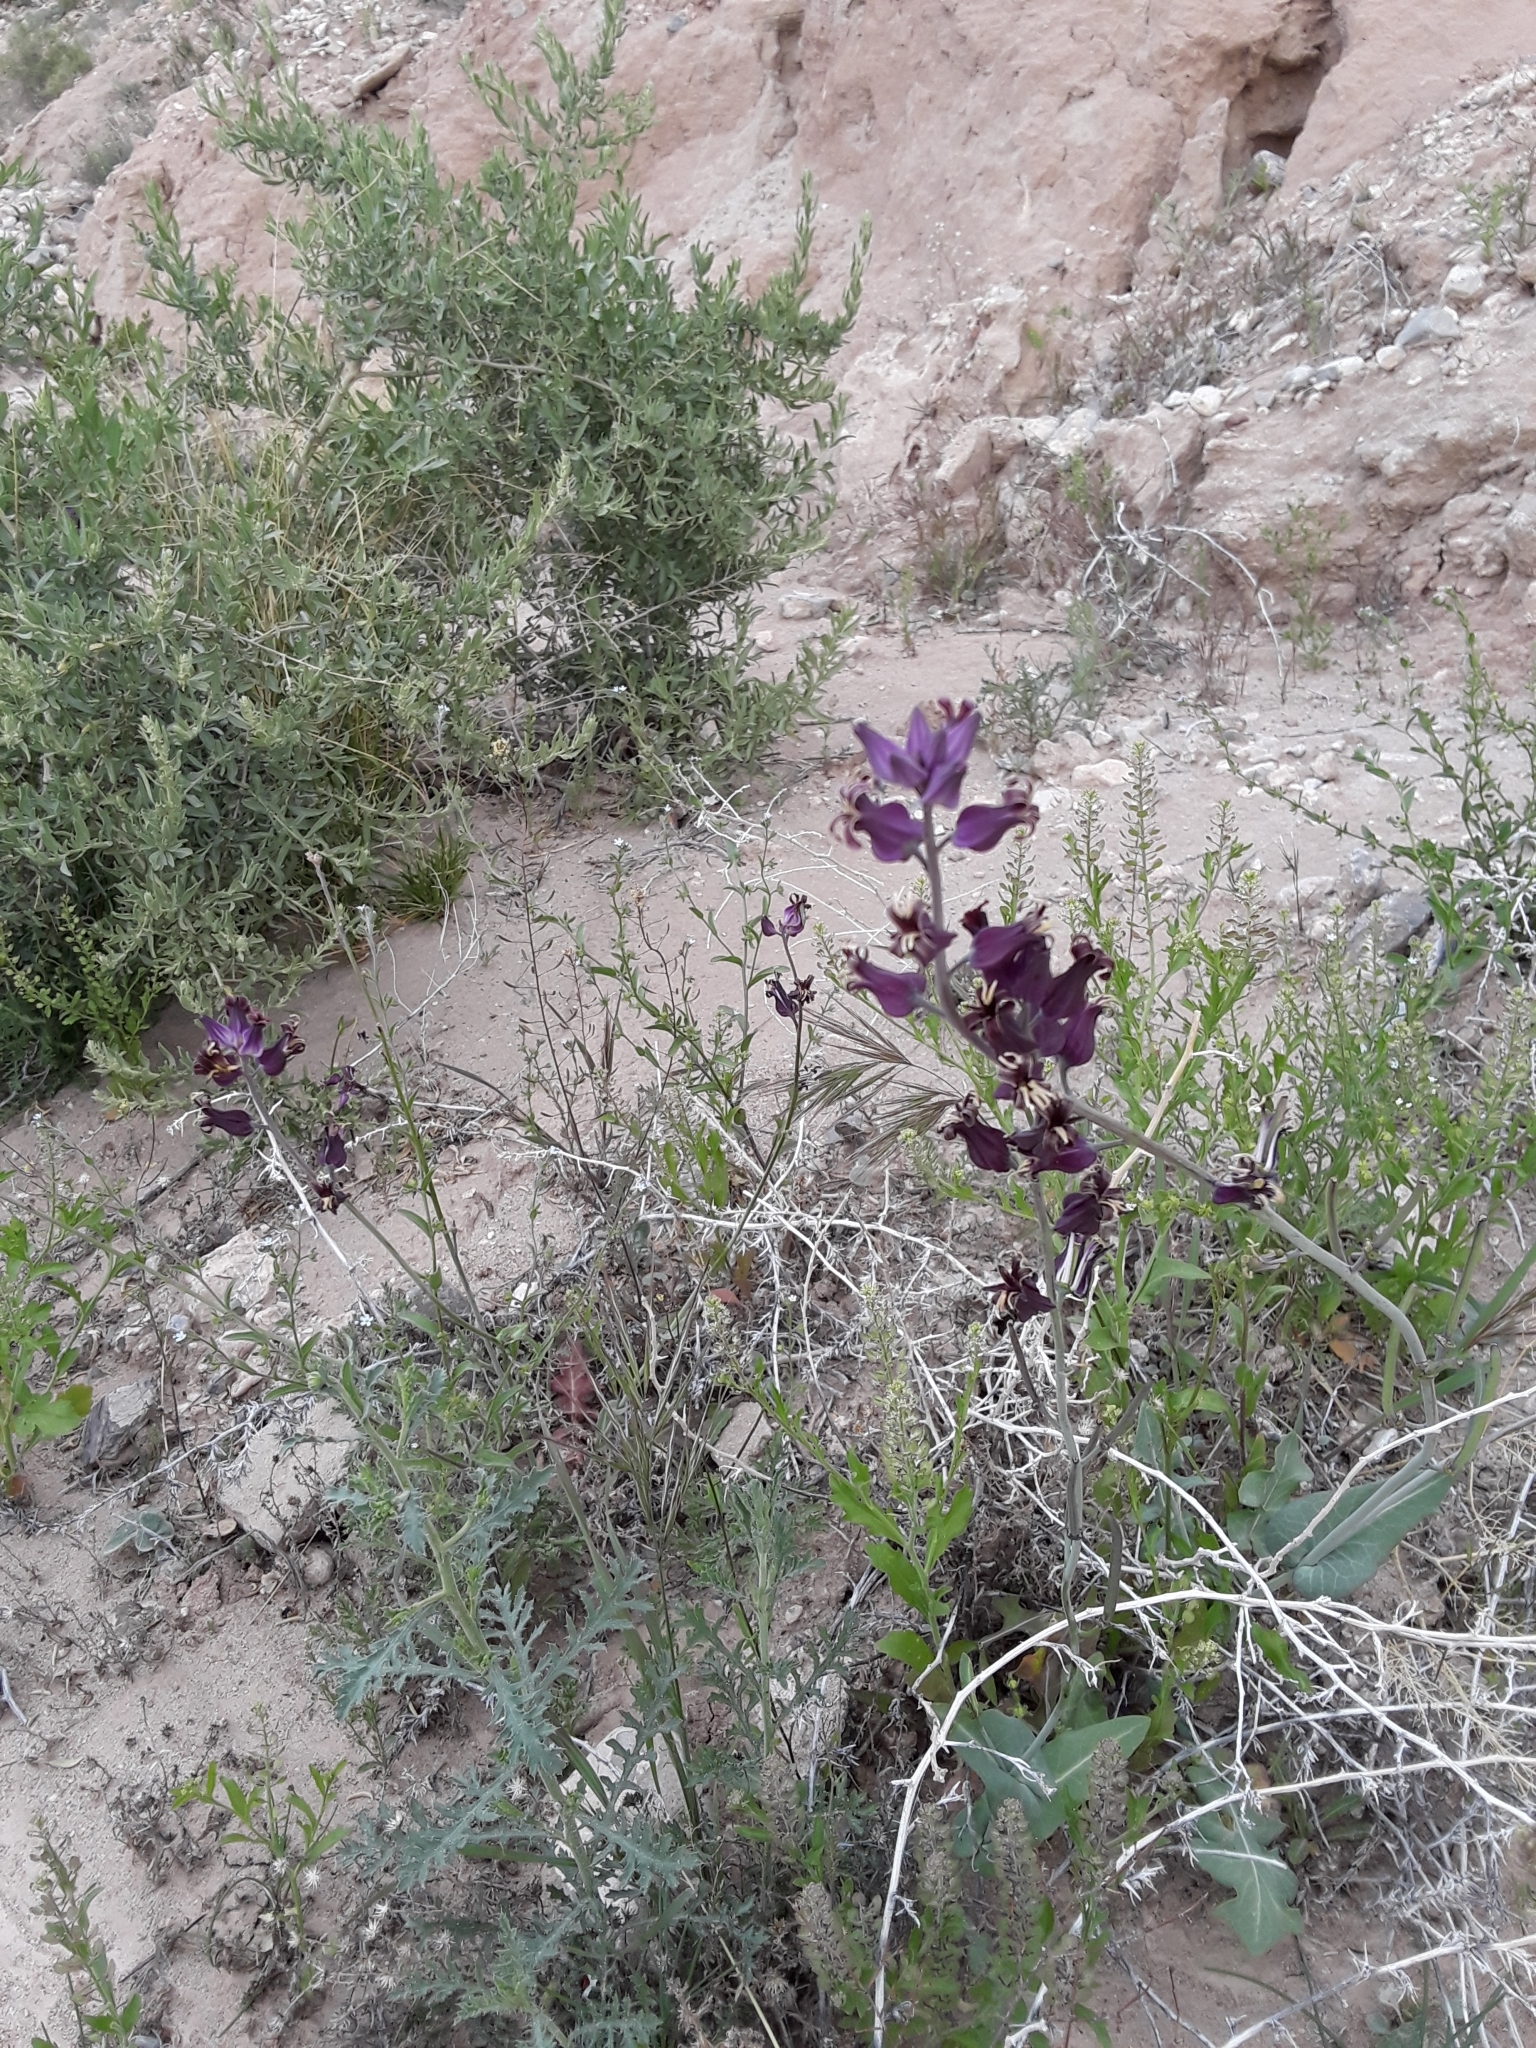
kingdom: Plantae
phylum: Tracheophyta
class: Magnoliopsida
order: Brassicales
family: Brassicaceae
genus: Streptanthus
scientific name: Streptanthus carinatus
